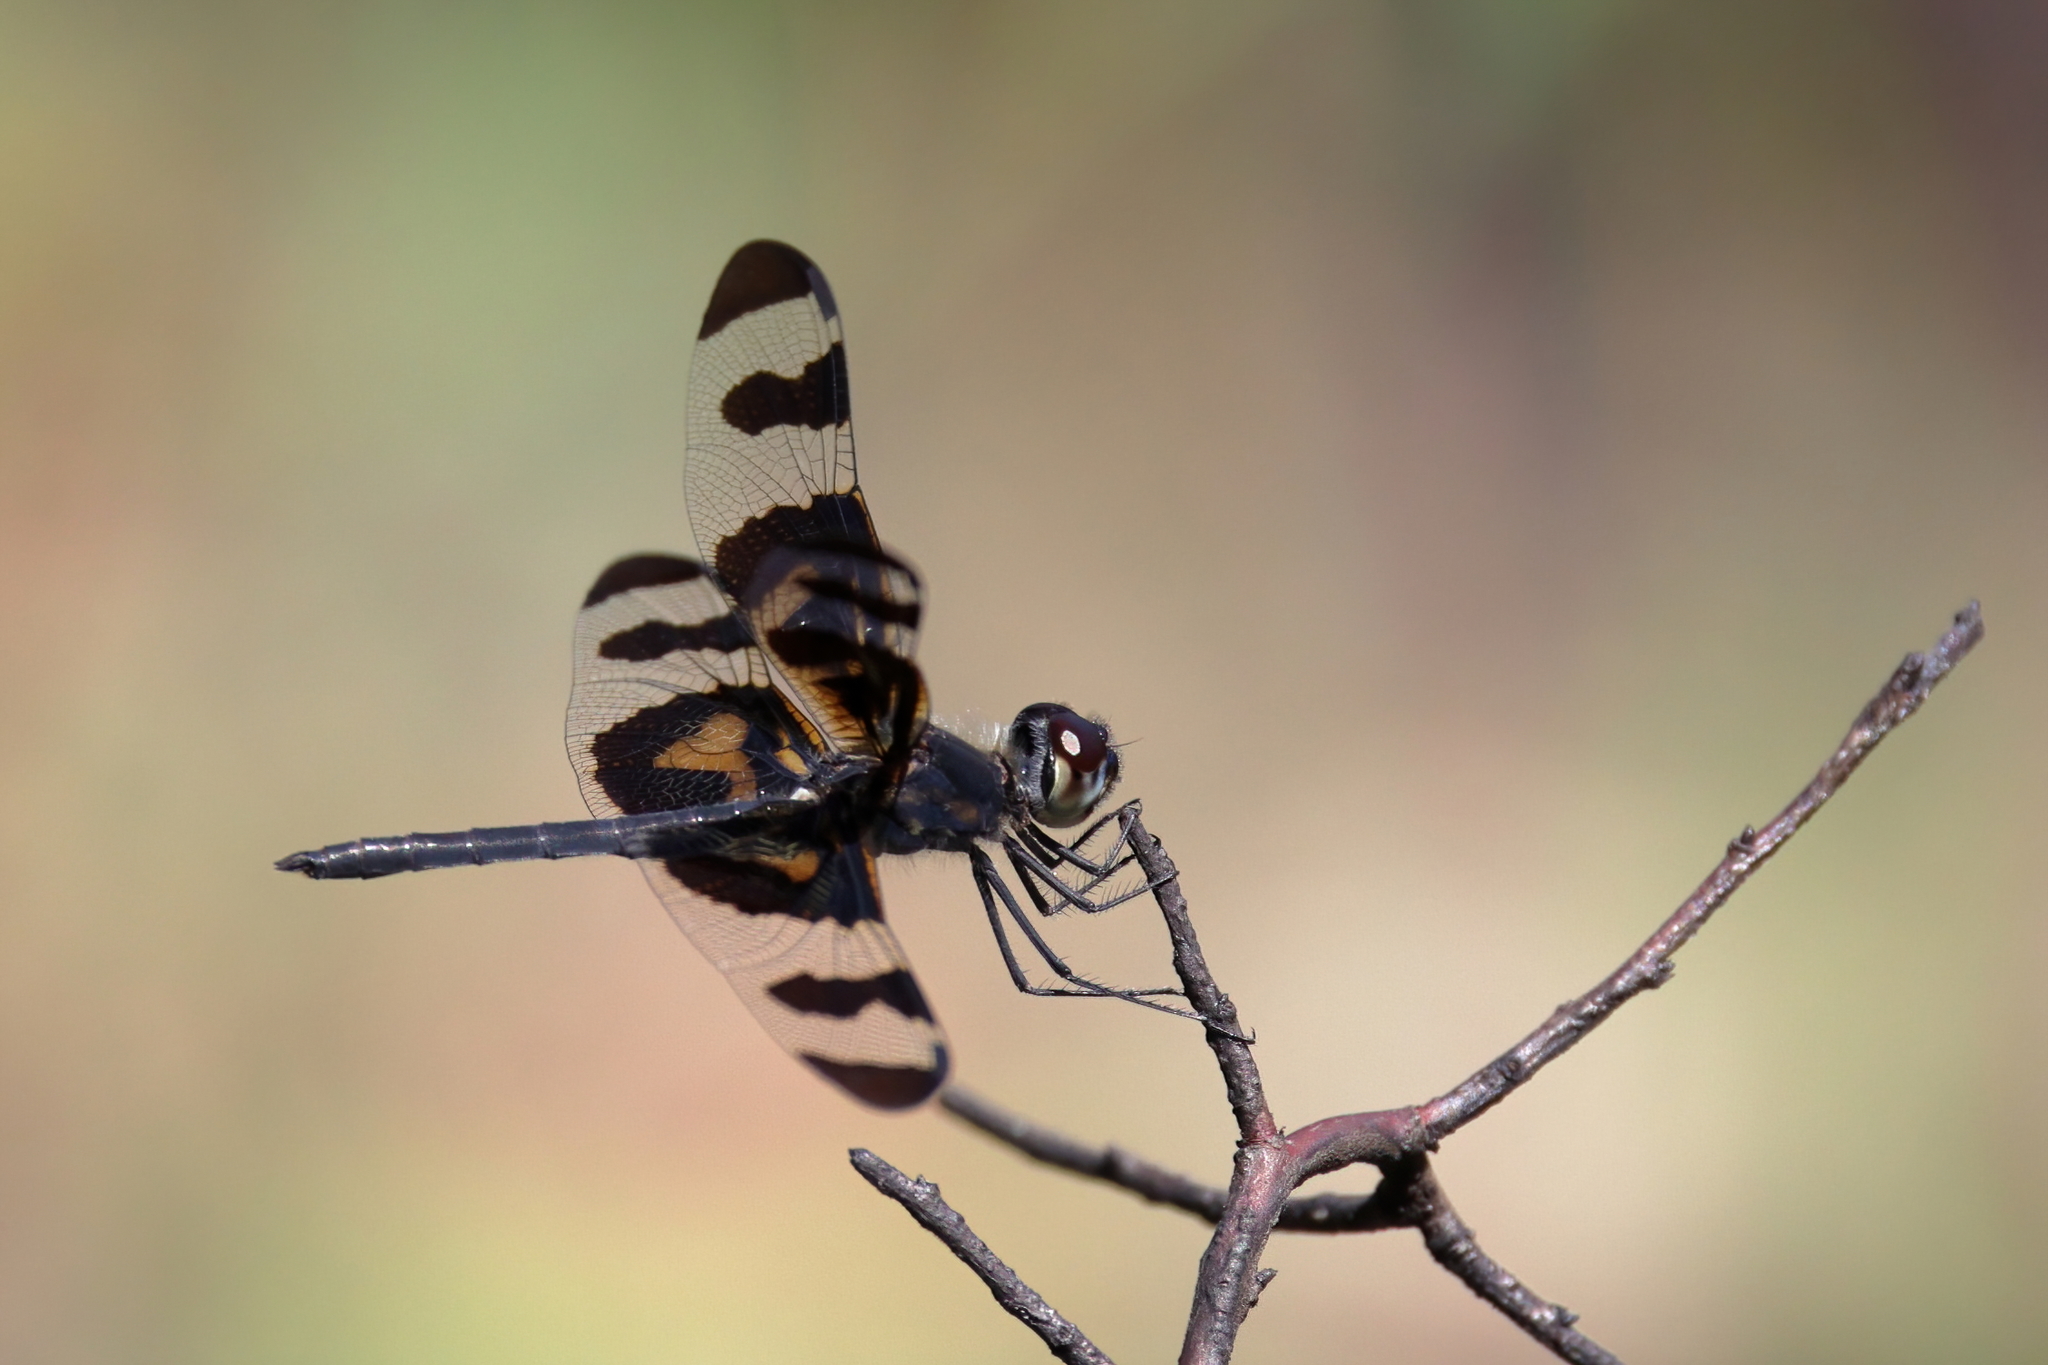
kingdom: Animalia
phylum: Arthropoda
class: Insecta
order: Odonata
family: Libellulidae
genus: Celithemis
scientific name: Celithemis fasciata
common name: Banded pennant
